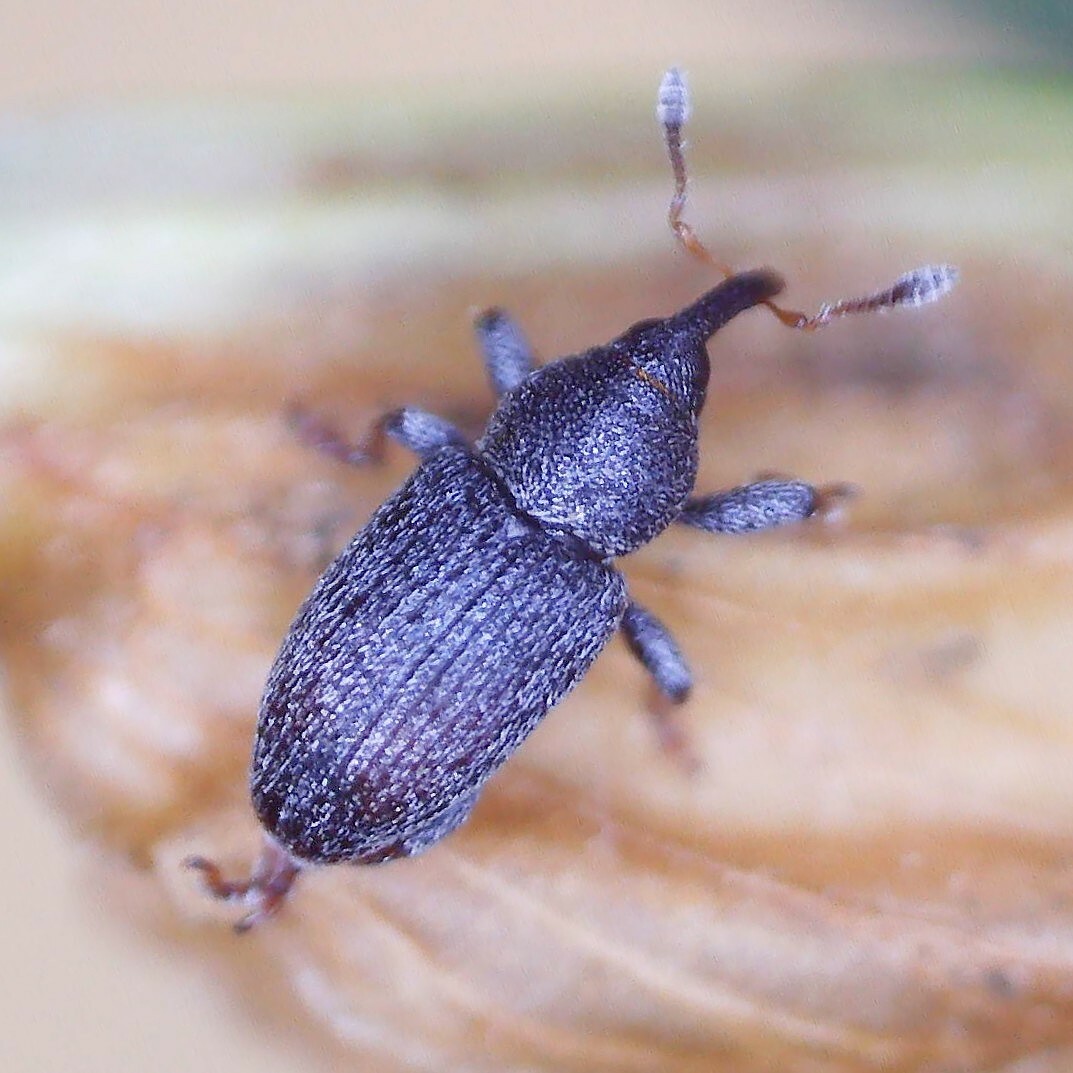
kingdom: Animalia
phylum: Arthropoda
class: Insecta
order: Coleoptera
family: Curculionidae
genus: Tychius
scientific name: Tychius picirostris
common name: Clover seed weevil
